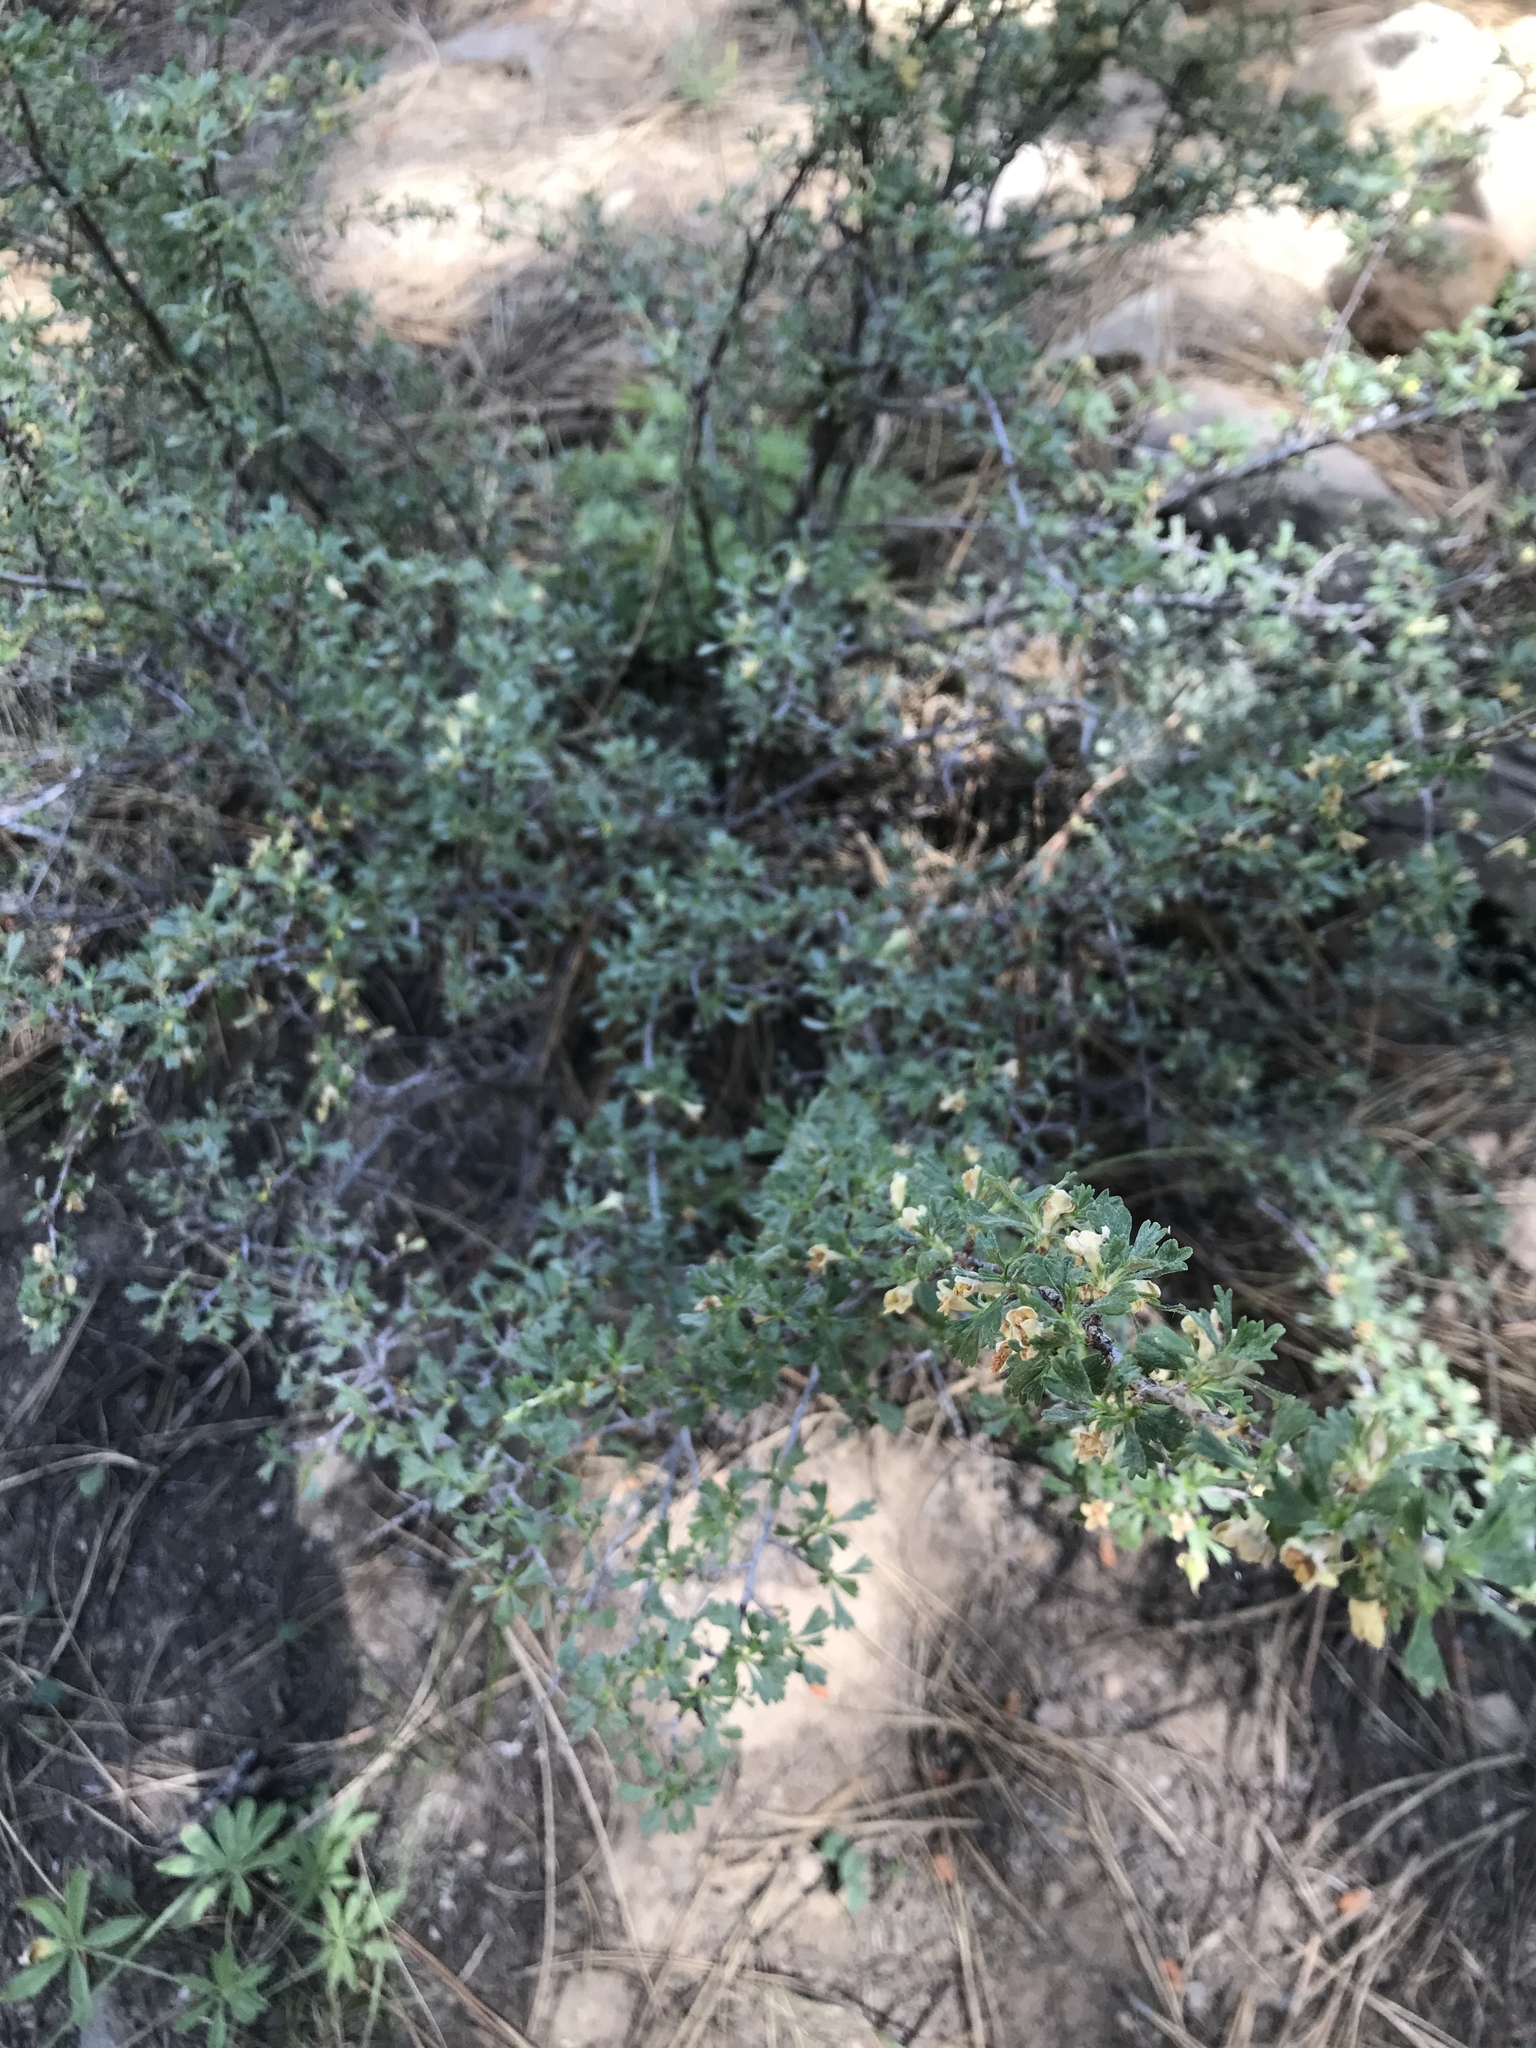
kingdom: Plantae
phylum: Tracheophyta
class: Magnoliopsida
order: Rosales
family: Rosaceae
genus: Purshia
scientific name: Purshia tridentata
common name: Antelope bitterbrush
